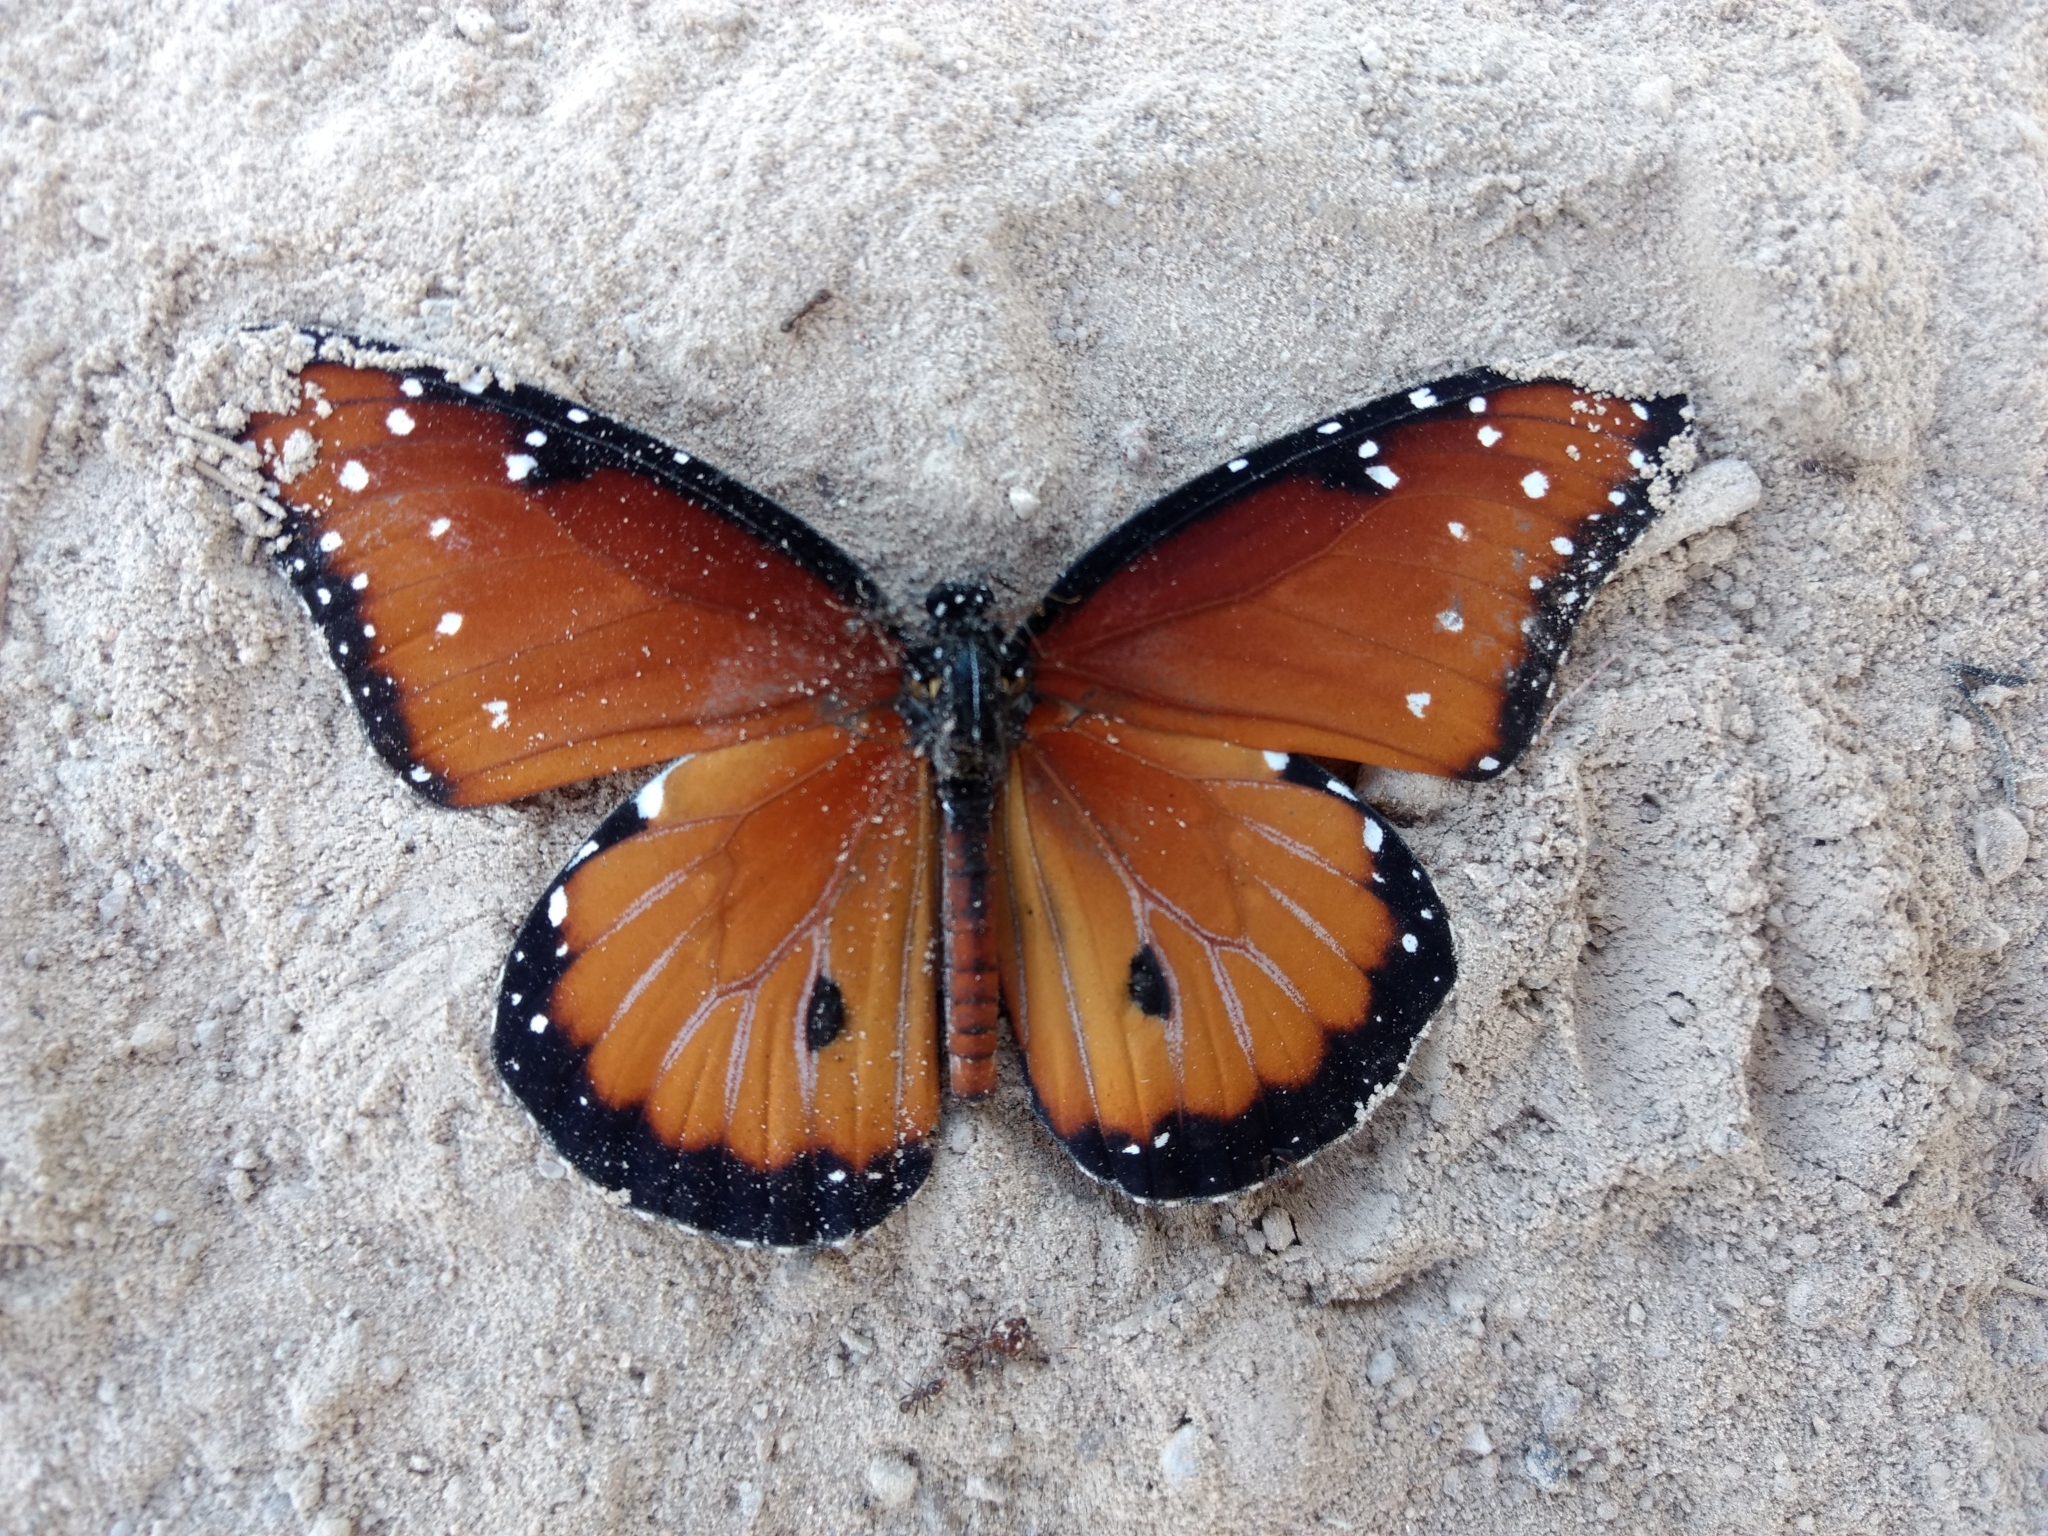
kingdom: Animalia
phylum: Arthropoda
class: Insecta
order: Lepidoptera
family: Nymphalidae
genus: Danaus
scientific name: Danaus gilippus
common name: Queen
